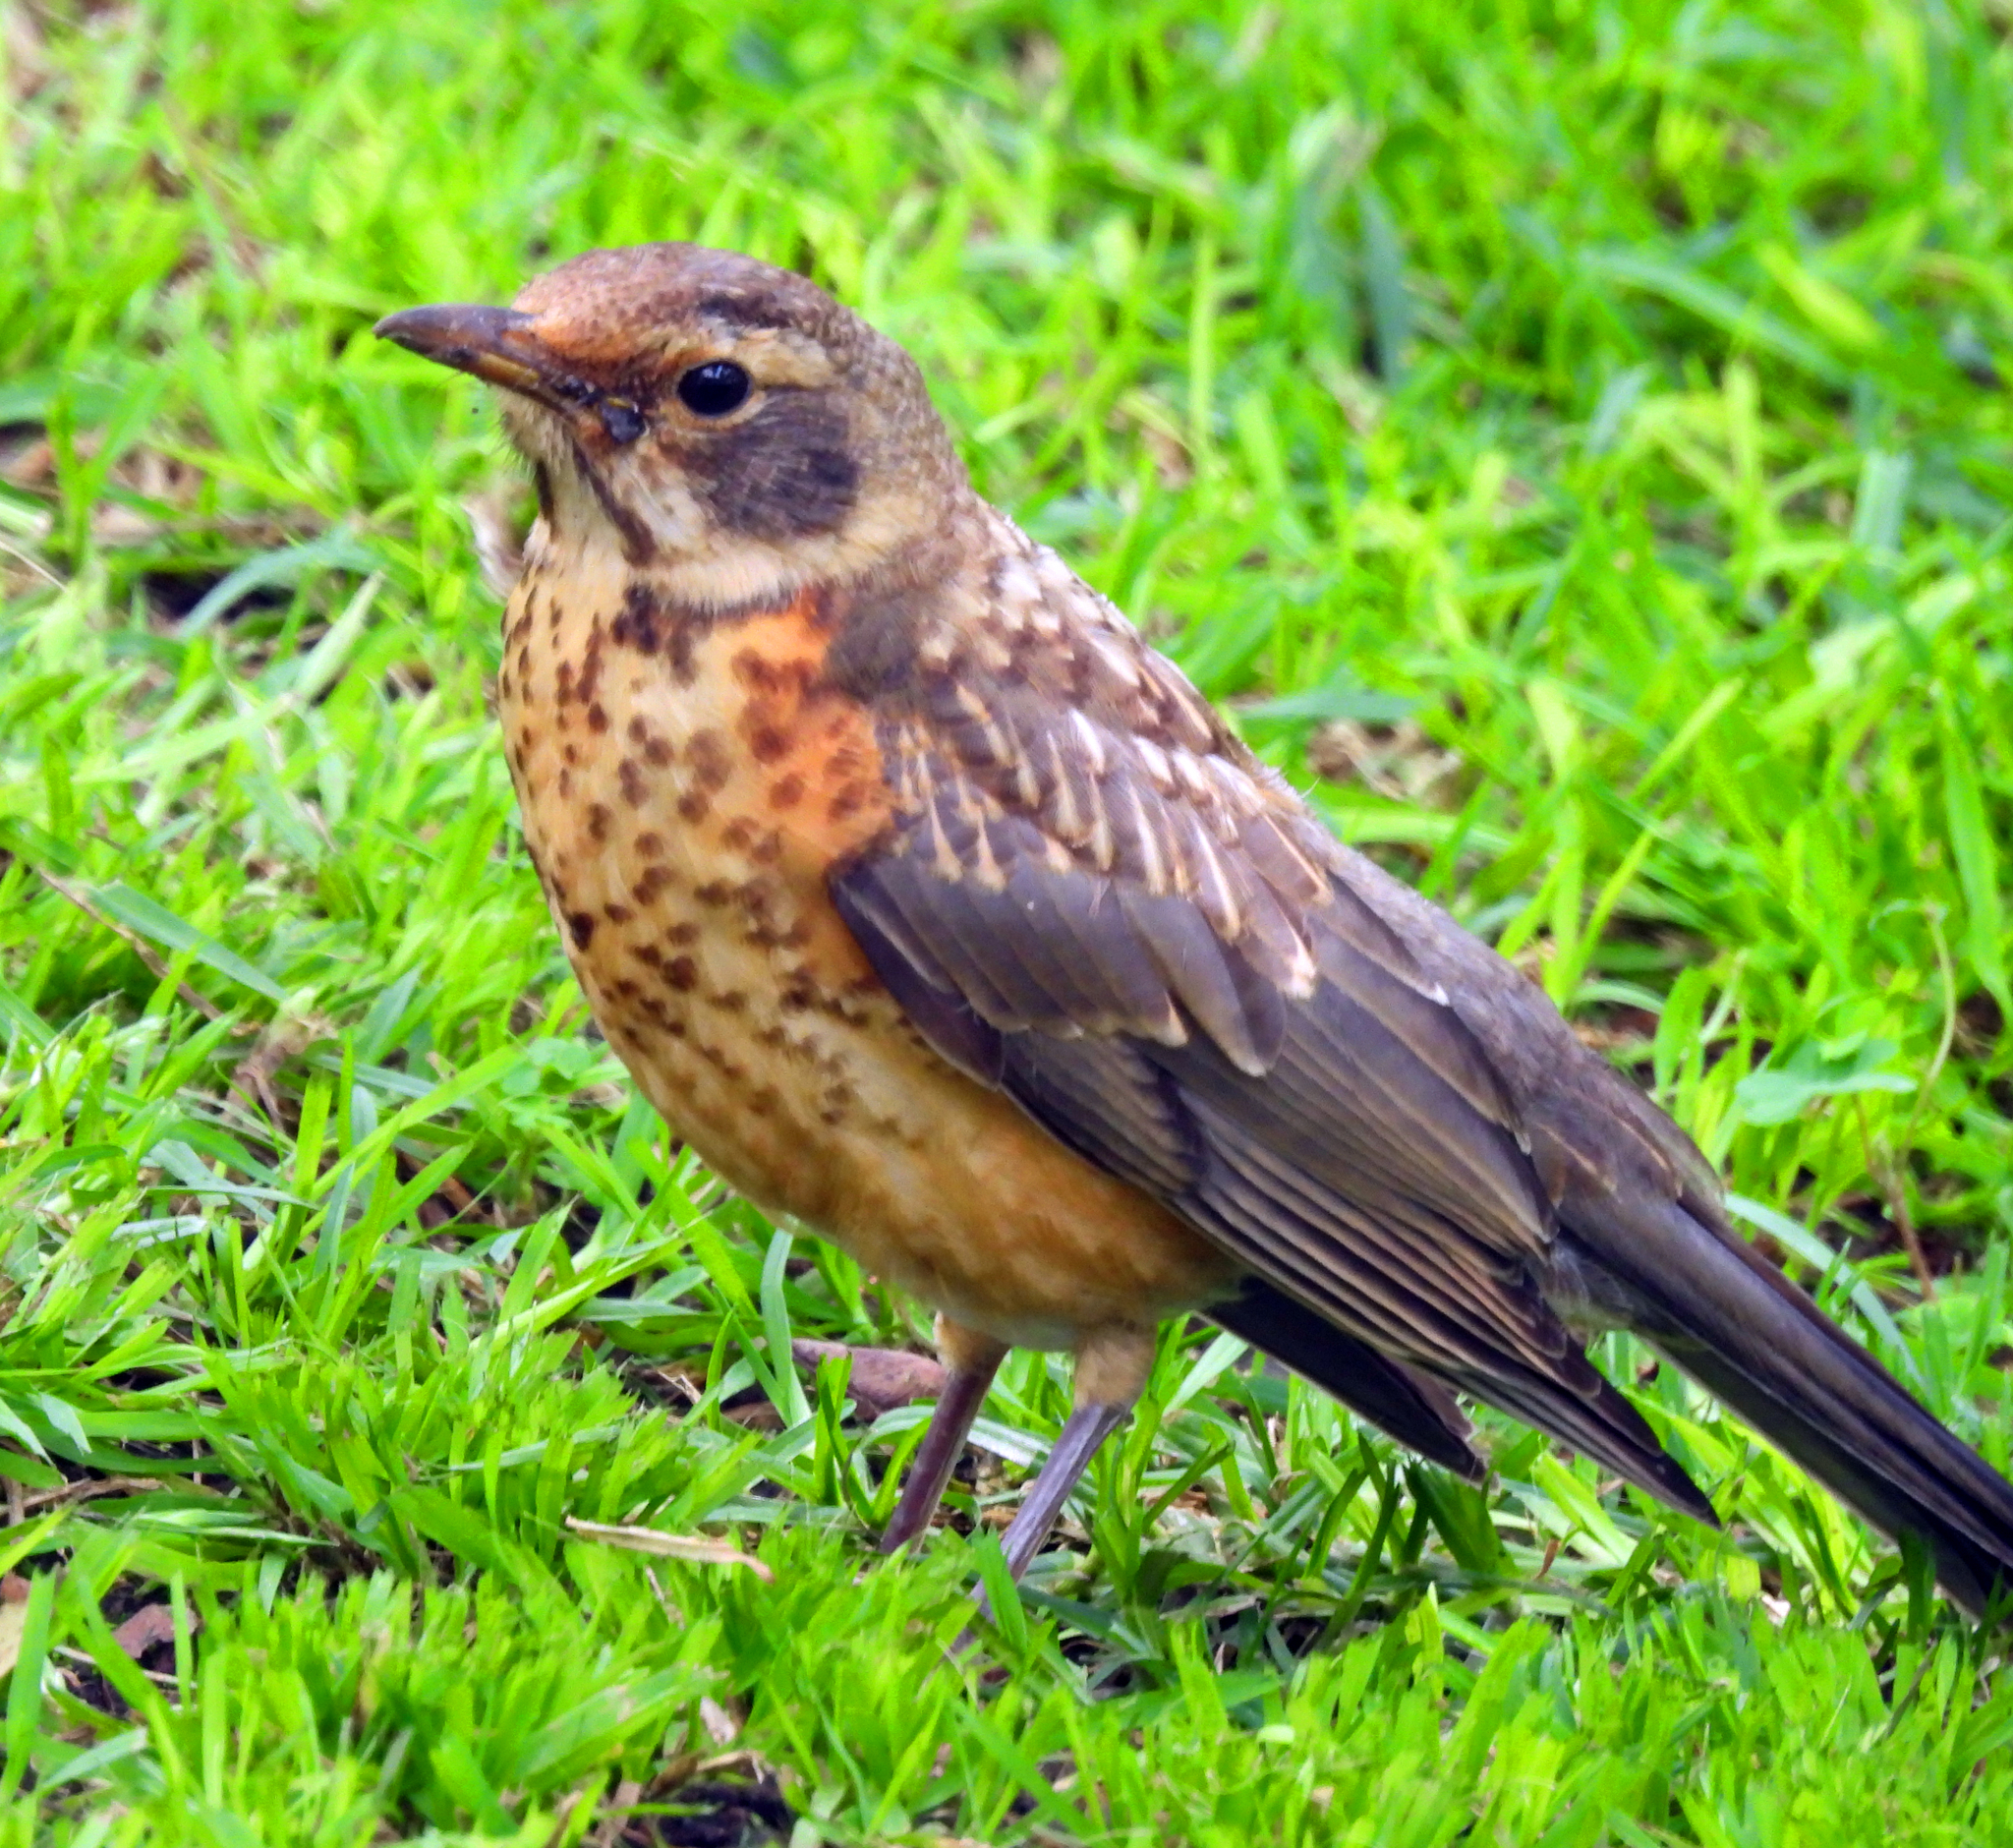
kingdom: Animalia
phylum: Chordata
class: Aves
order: Passeriformes
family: Turdidae
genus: Turdus
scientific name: Turdus migratorius
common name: American robin
